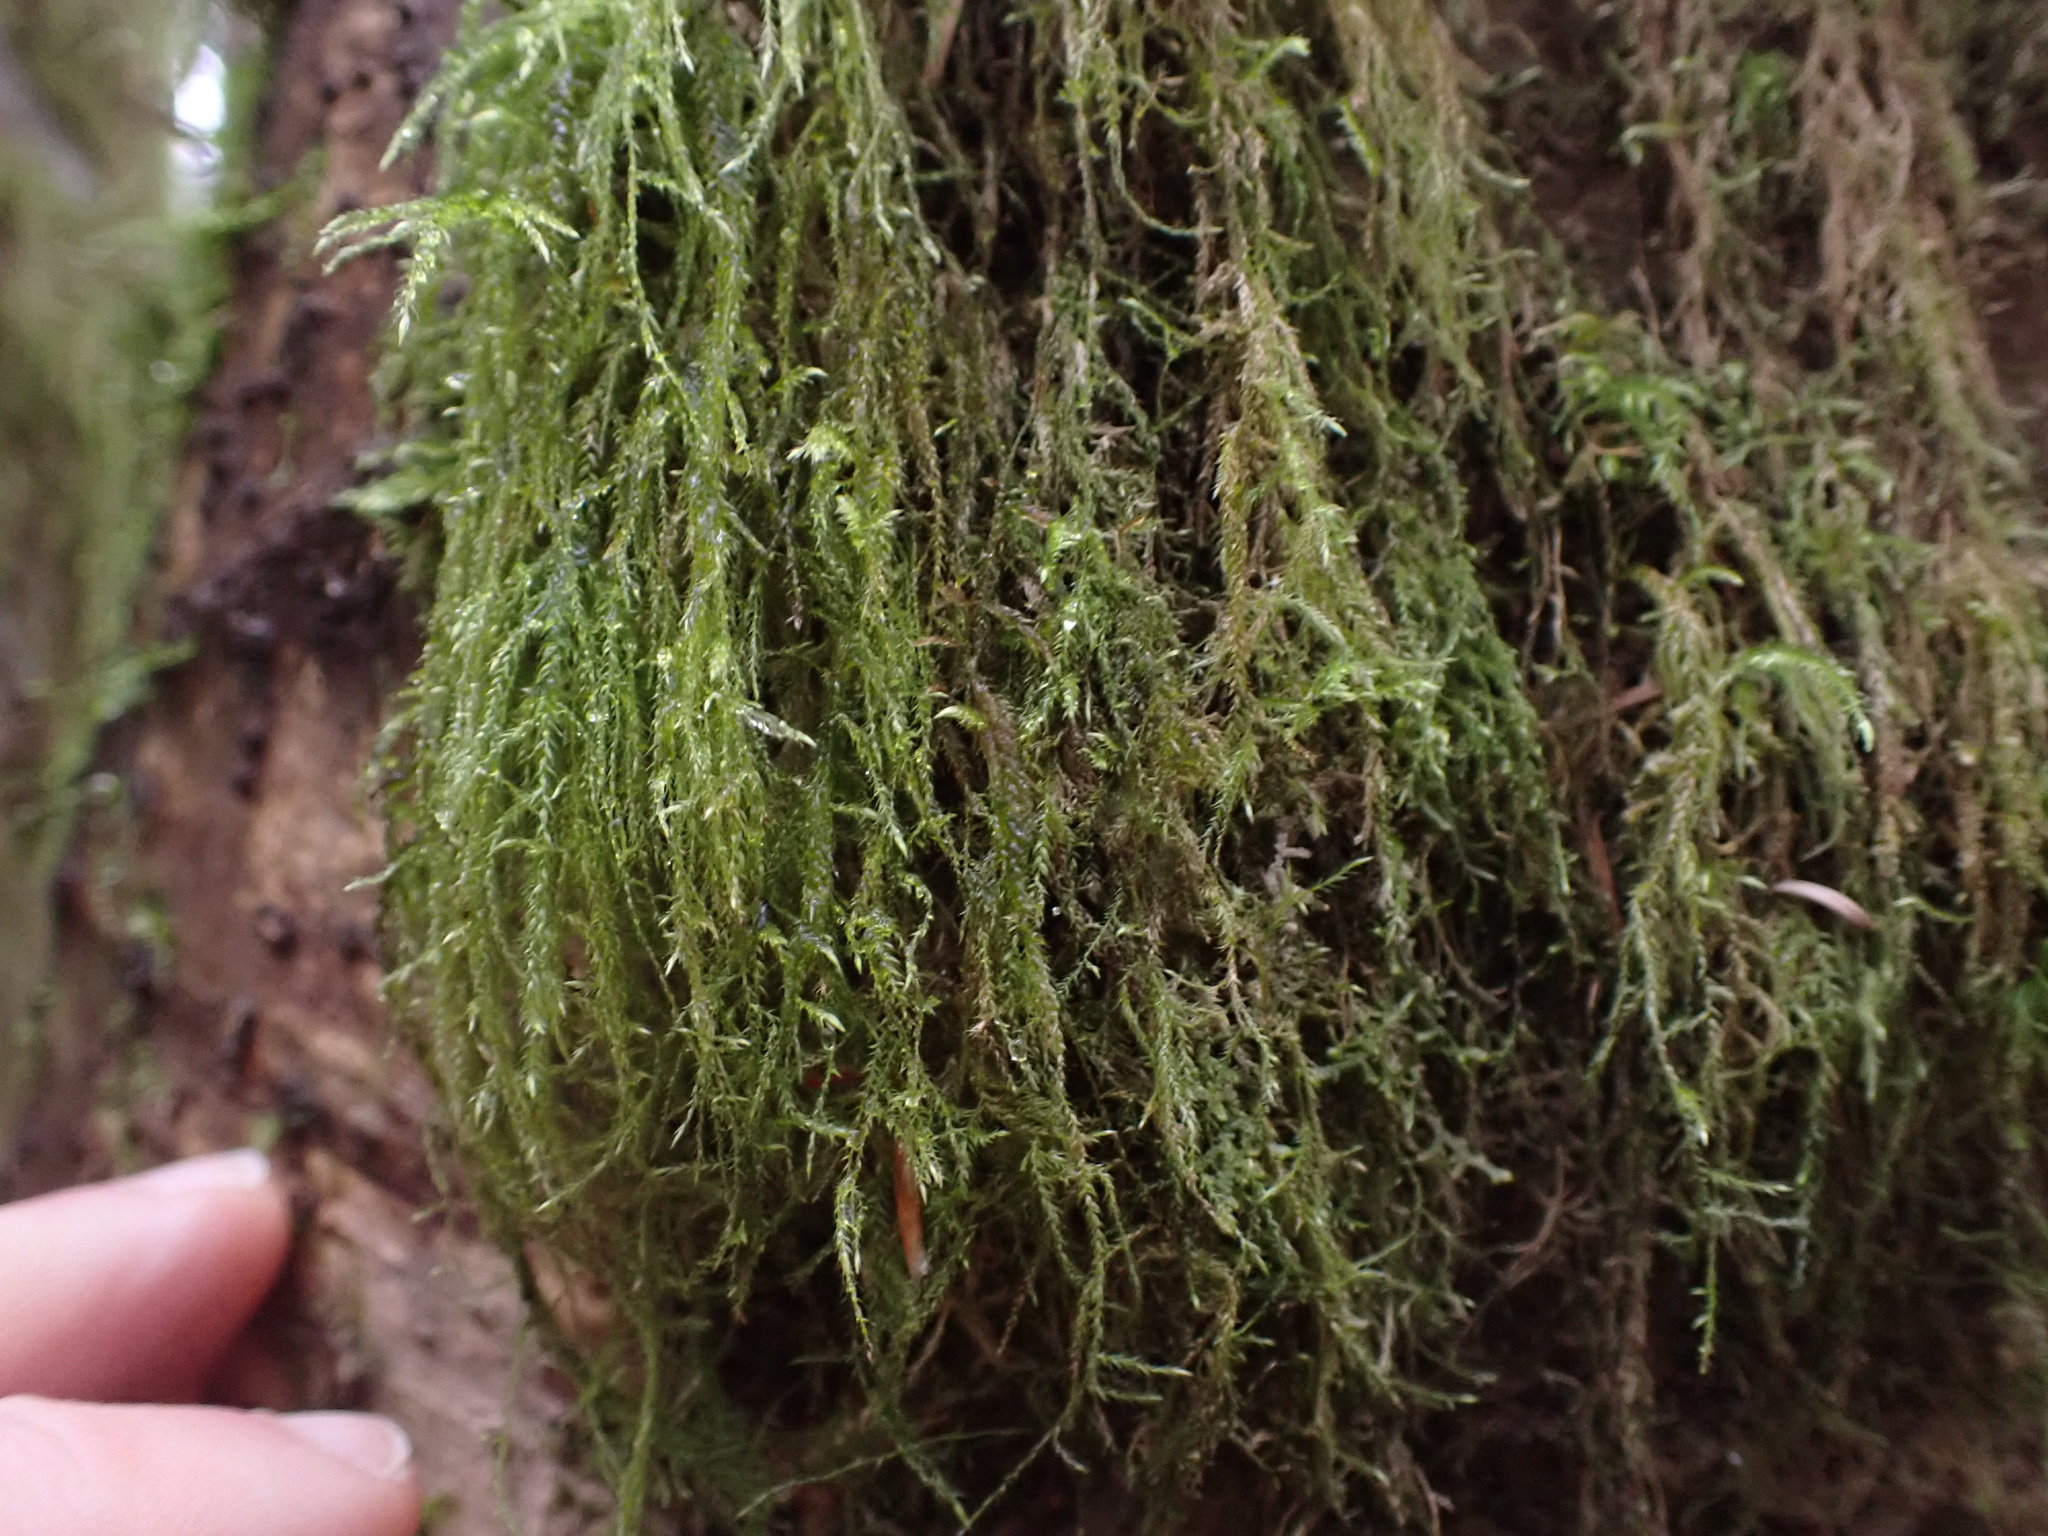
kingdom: Plantae
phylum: Bryophyta
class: Bryopsida
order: Hypnales
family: Lembophyllaceae
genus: Pseudisothecium
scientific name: Pseudisothecium stoloniferum
